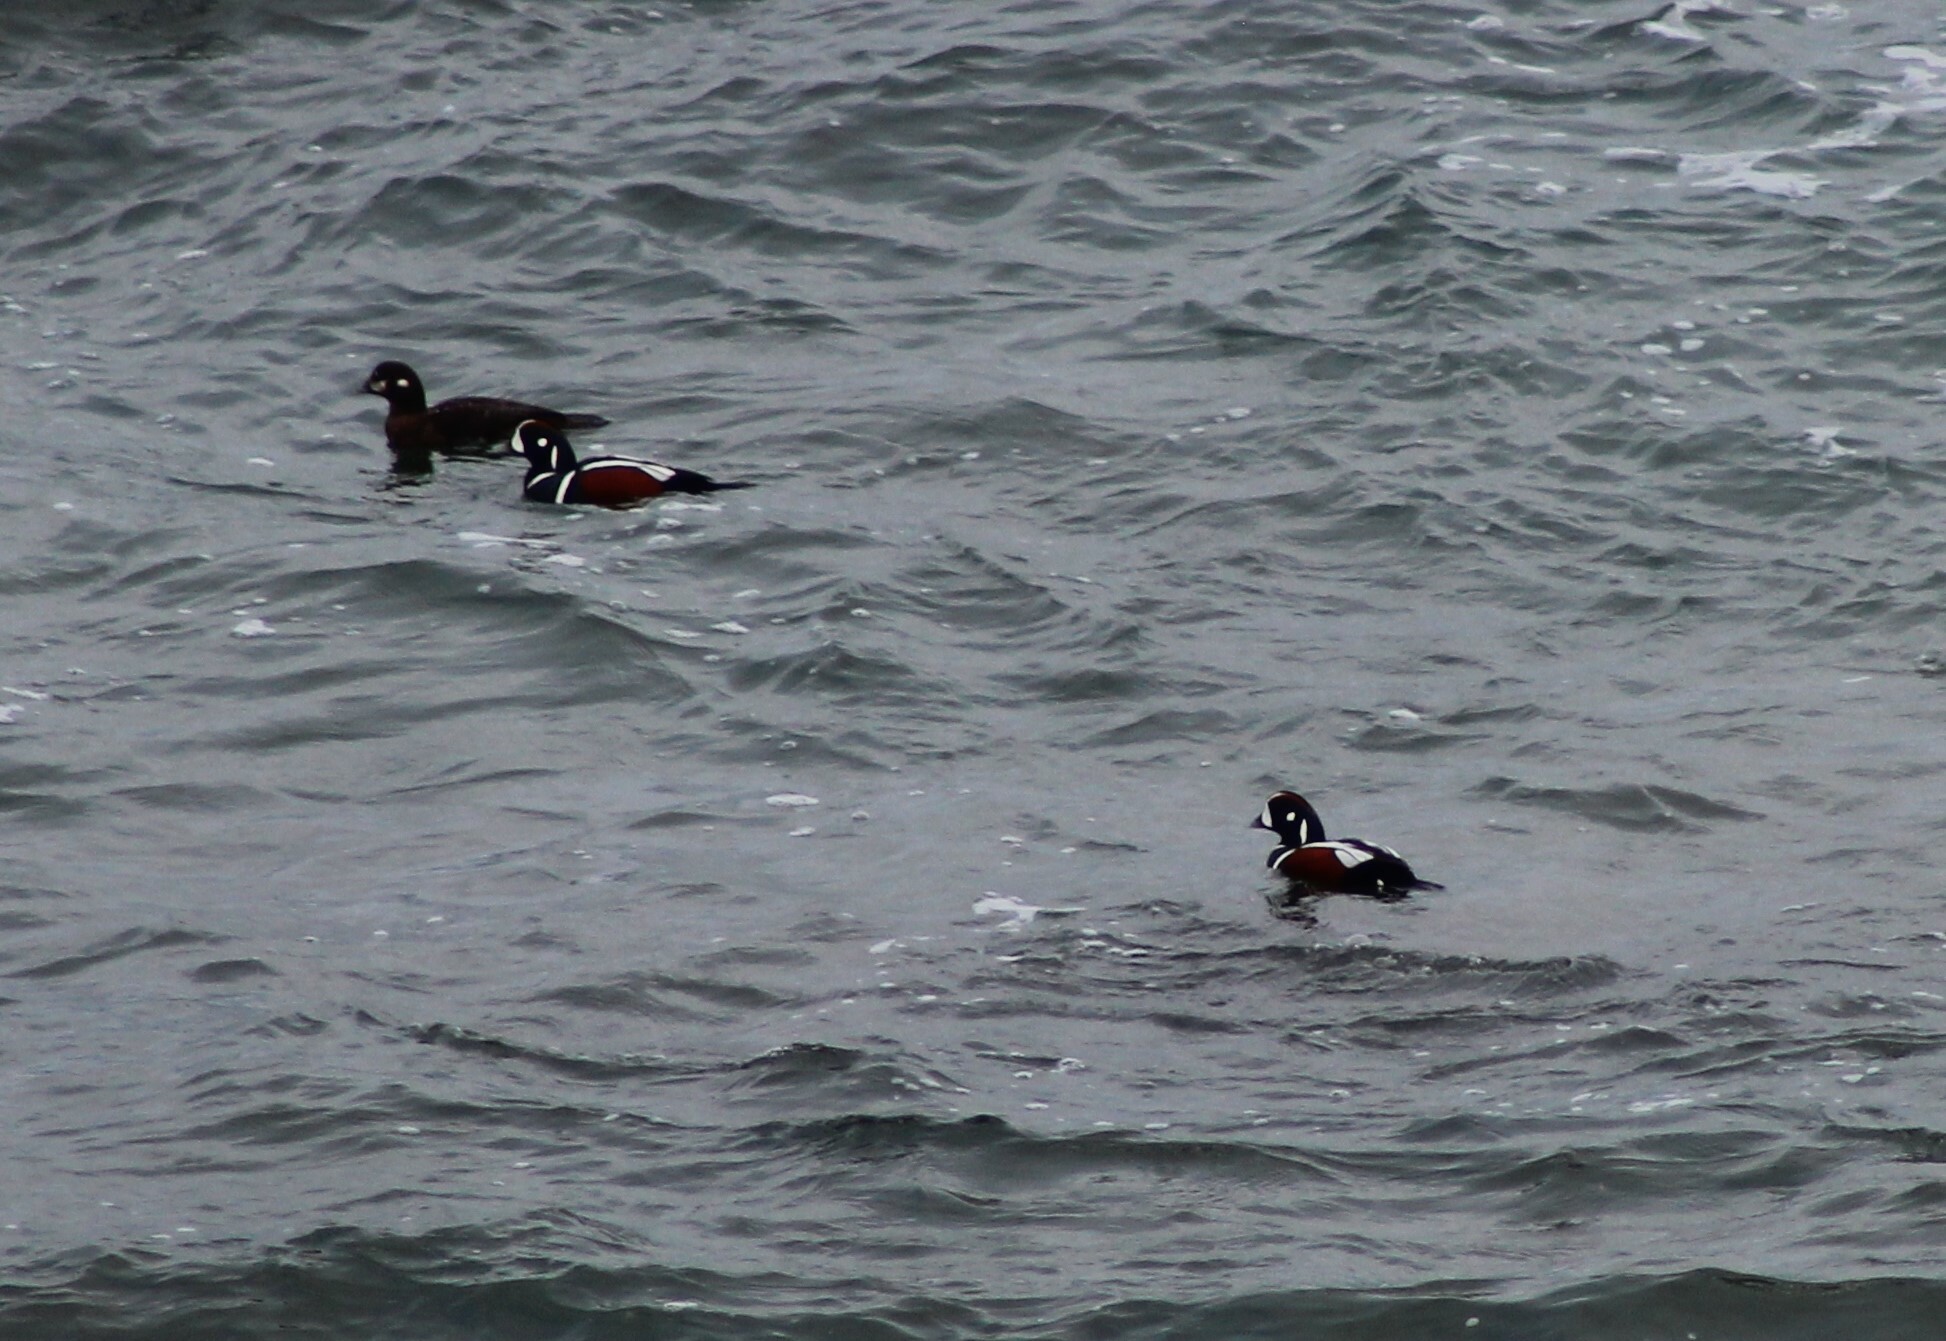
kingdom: Animalia
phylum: Chordata
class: Aves
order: Anseriformes
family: Anatidae
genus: Histrionicus
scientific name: Histrionicus histrionicus
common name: Harlequin duck
